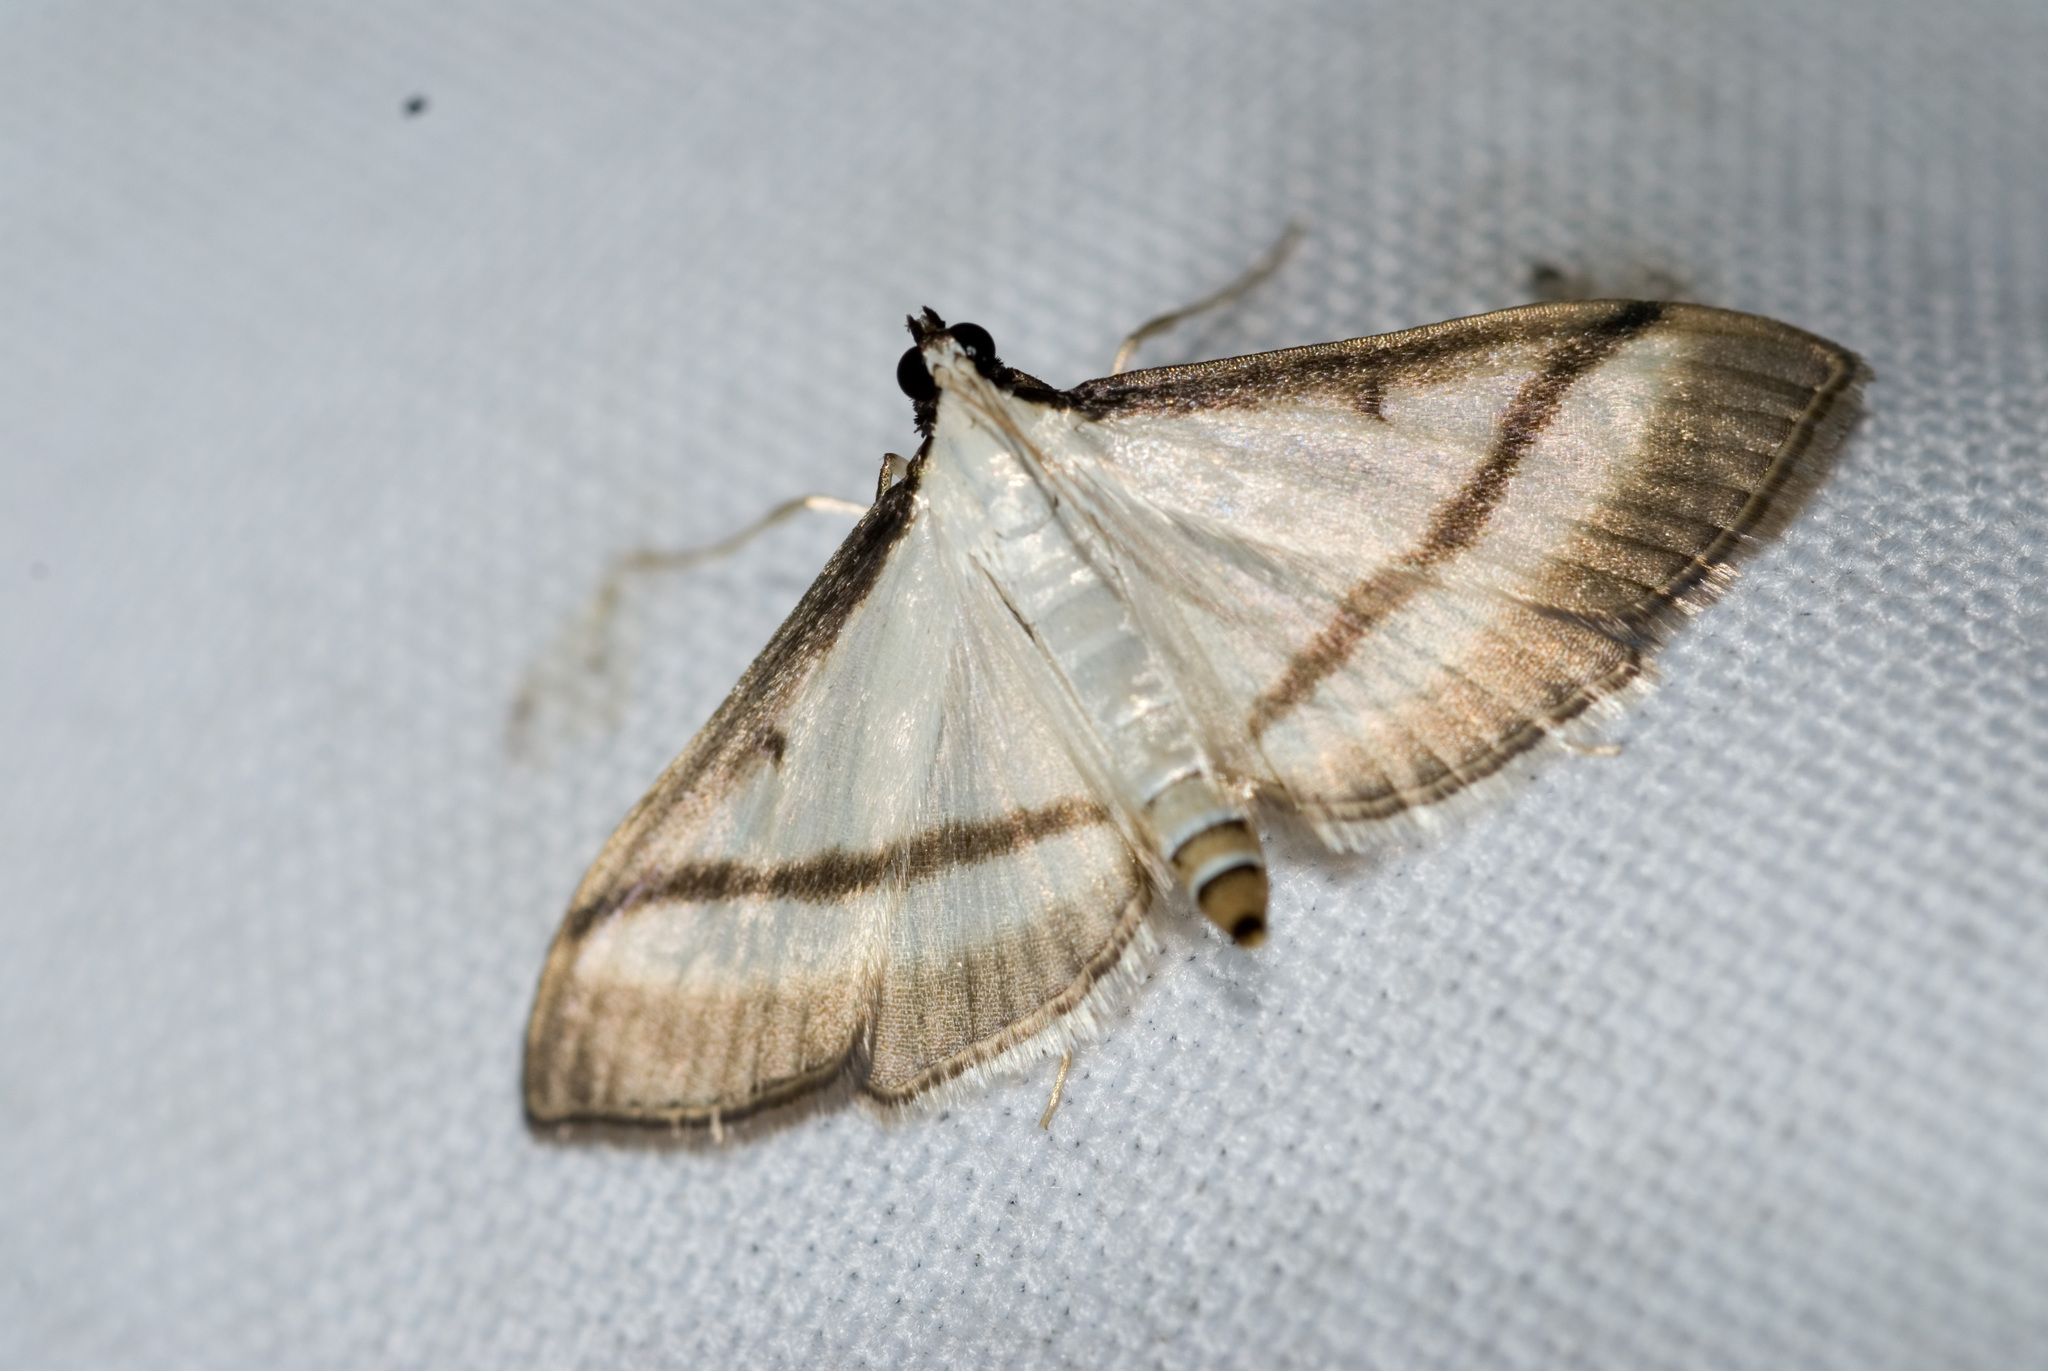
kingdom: Animalia
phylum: Arthropoda
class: Insecta
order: Lepidoptera
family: Crambidae
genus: Bradina
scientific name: Bradina diagonalis
